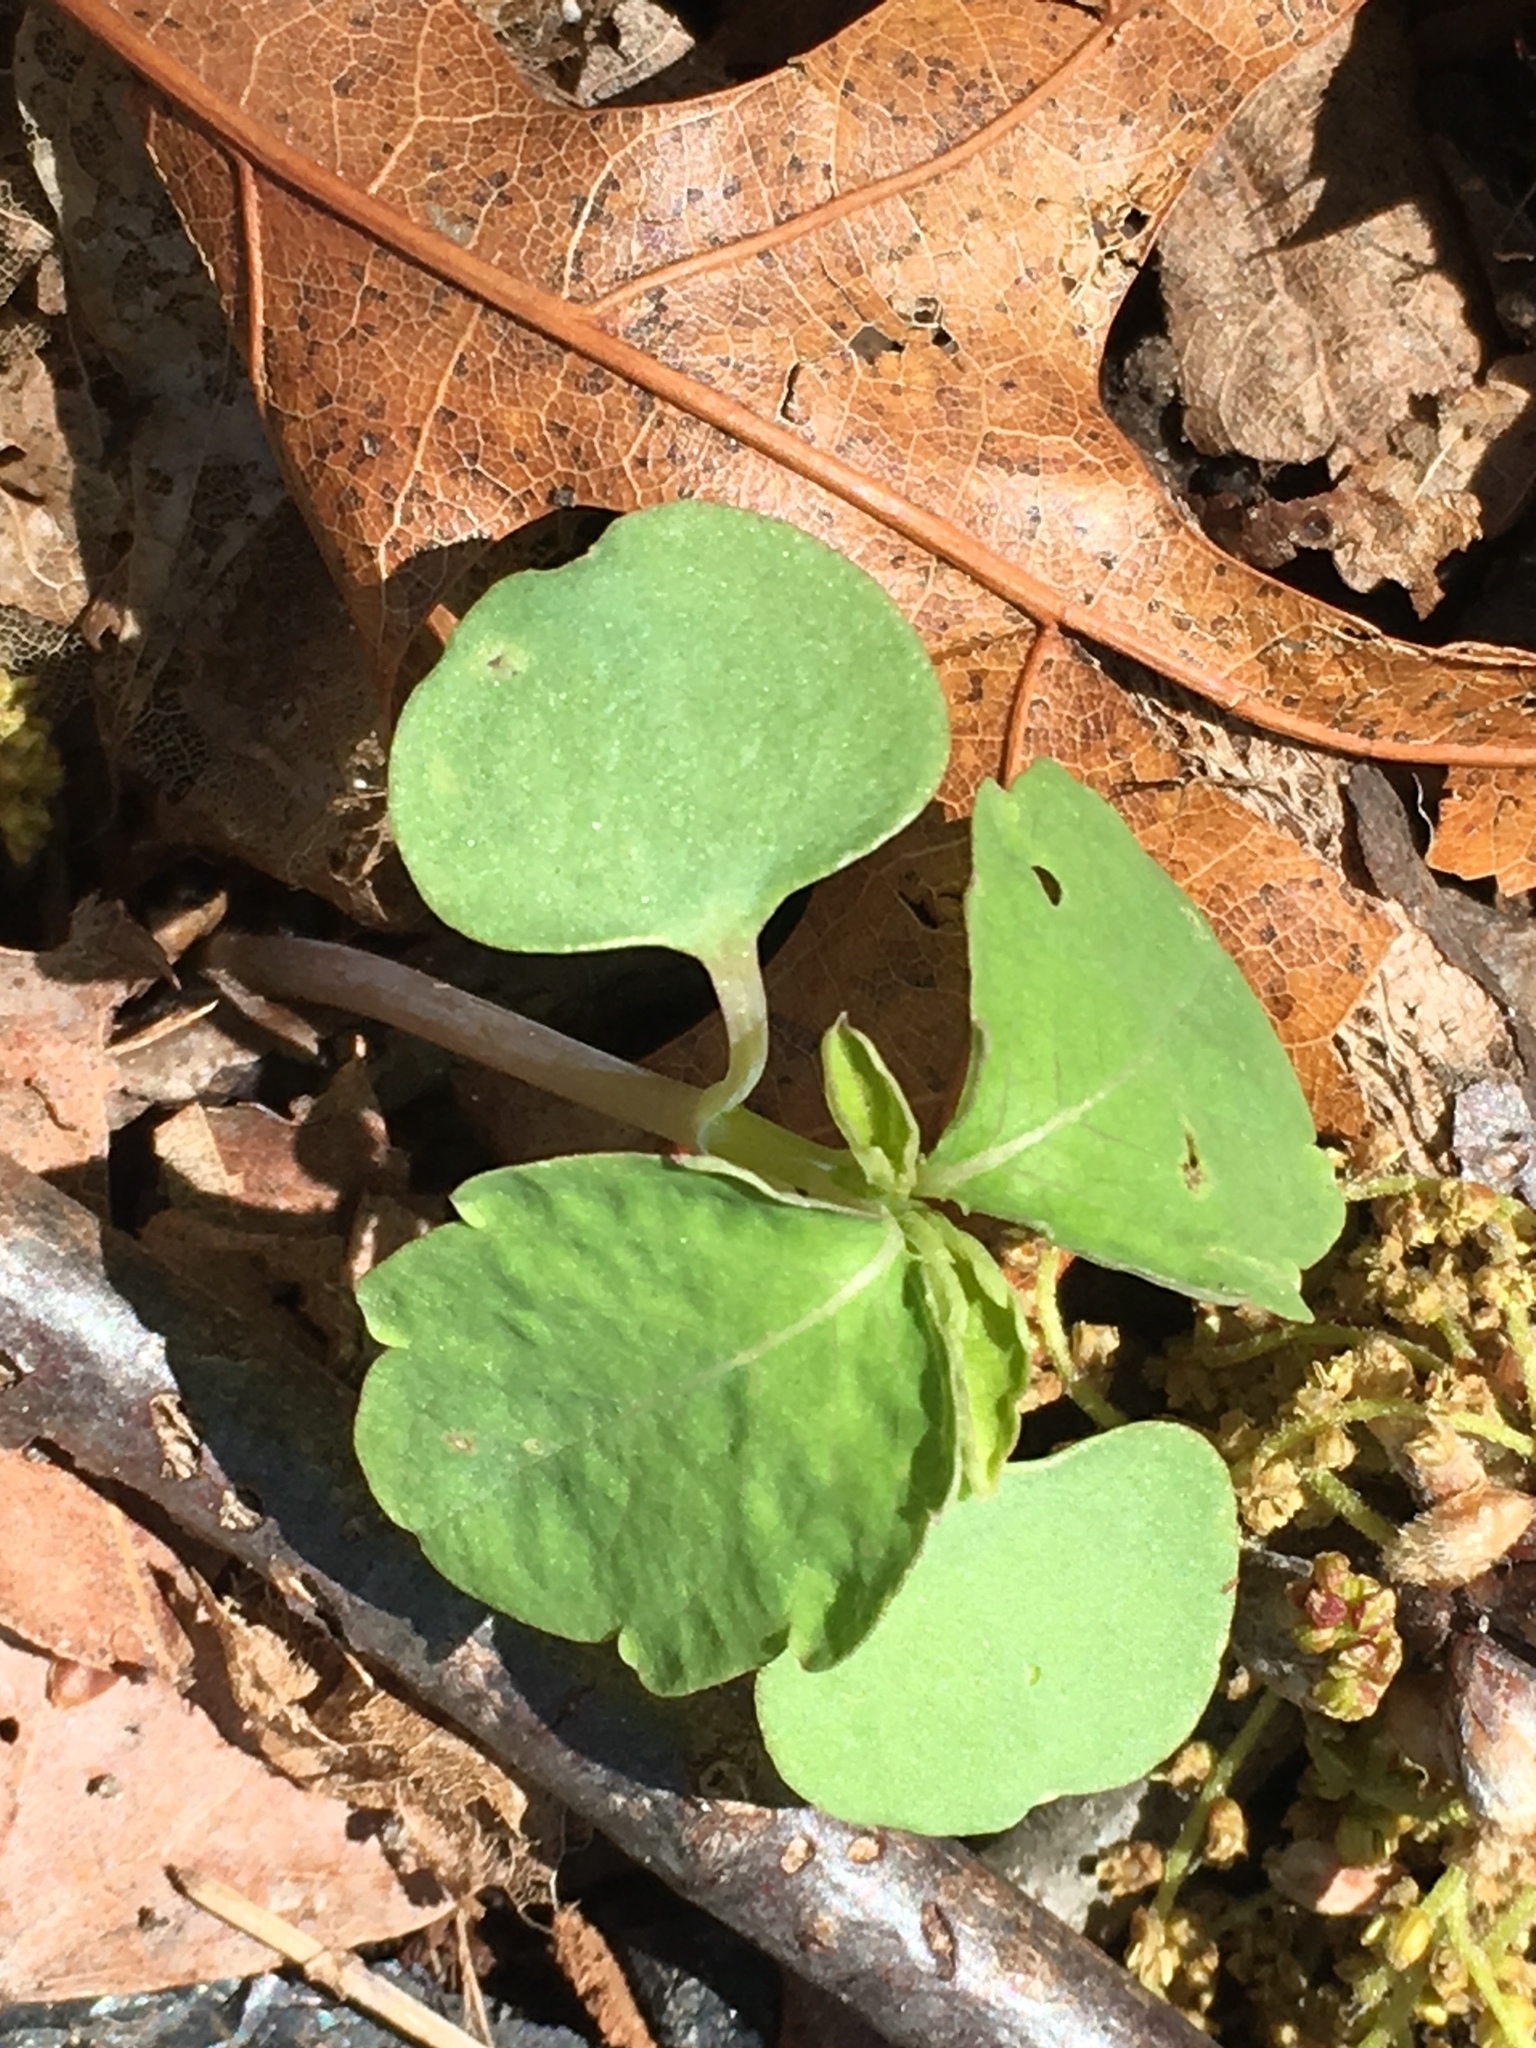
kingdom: Plantae
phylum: Tracheophyta
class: Magnoliopsida
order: Ericales
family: Balsaminaceae
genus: Impatiens
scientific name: Impatiens capensis
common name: Orange balsam
